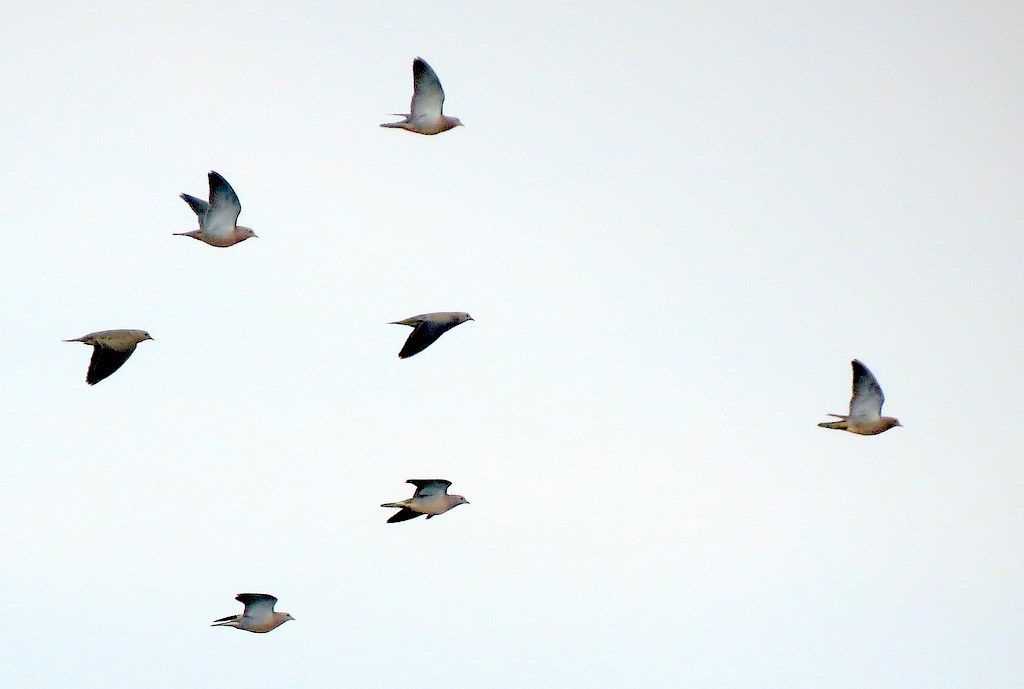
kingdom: Animalia
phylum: Chordata
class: Aves
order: Columbiformes
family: Columbidae
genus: Zenaida
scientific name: Zenaida auriculata
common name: Eared dove
